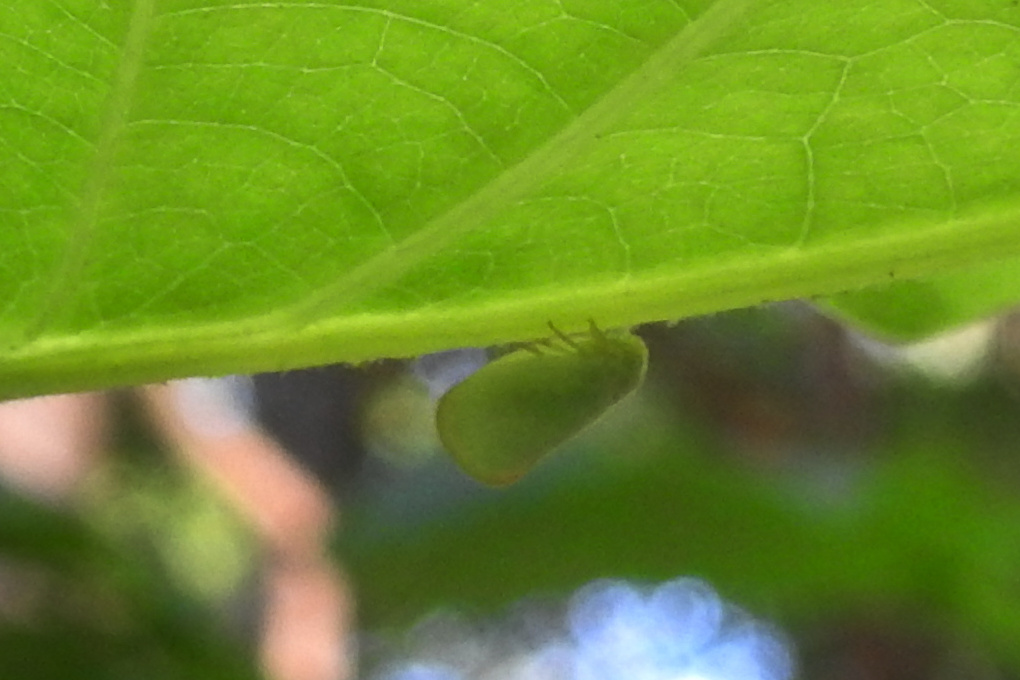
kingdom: Animalia
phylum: Arthropoda
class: Insecta
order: Hemiptera
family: Flatidae
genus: Ormenoides
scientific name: Ormenoides venusta
